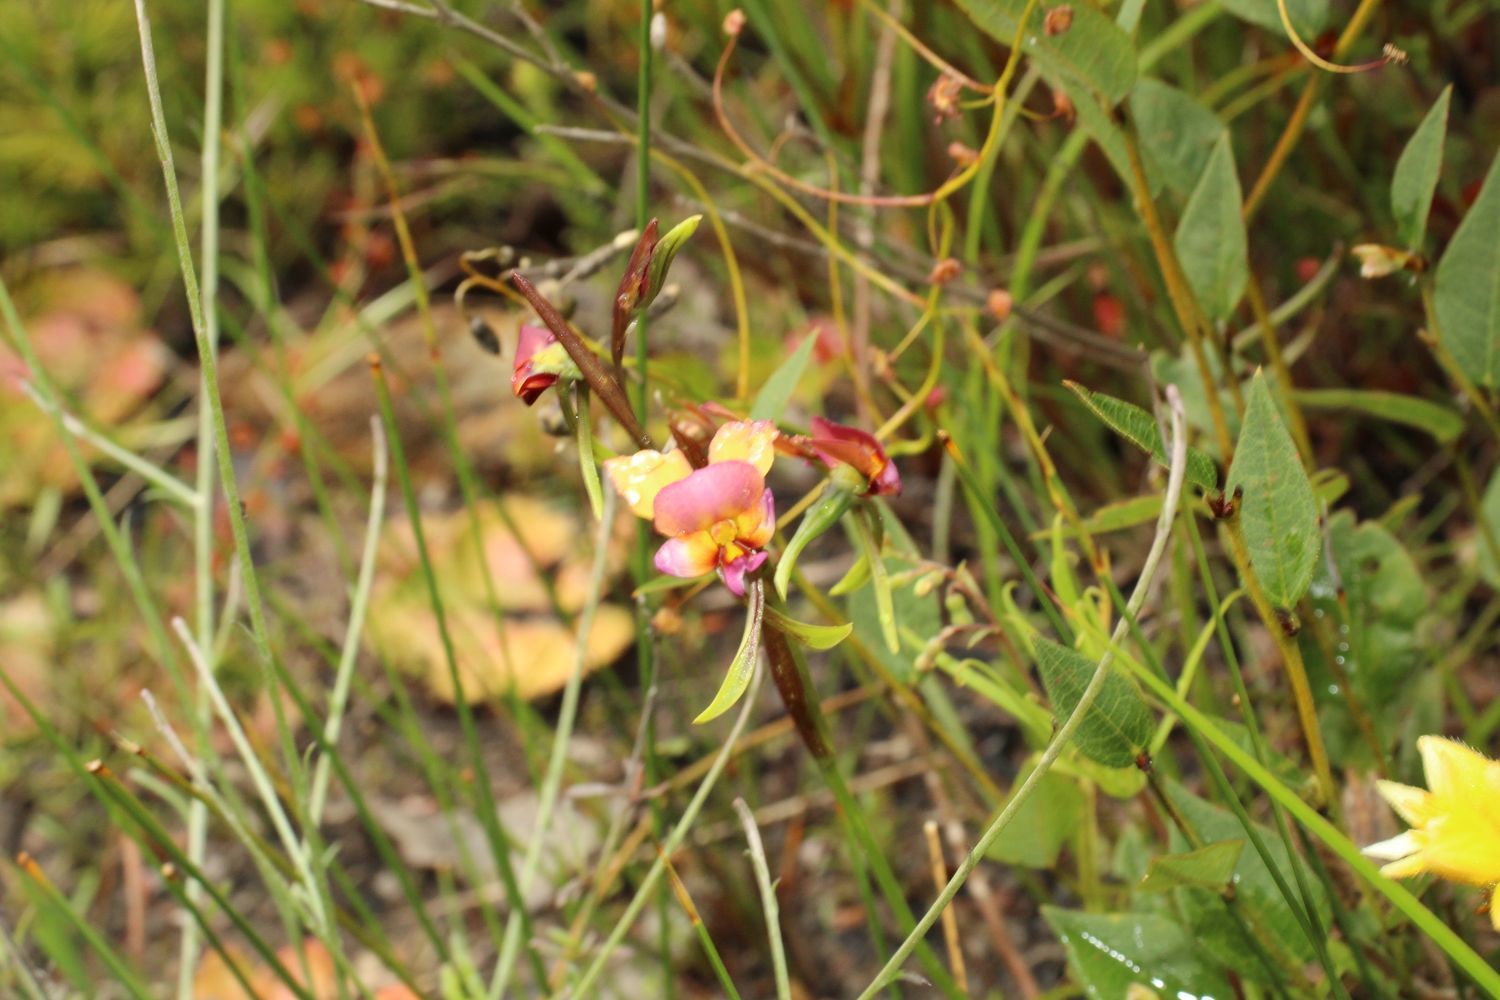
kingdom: Plantae
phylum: Tracheophyta
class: Liliopsida
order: Asparagales
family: Orchidaceae
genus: Diuris
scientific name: Diuris longifolia
